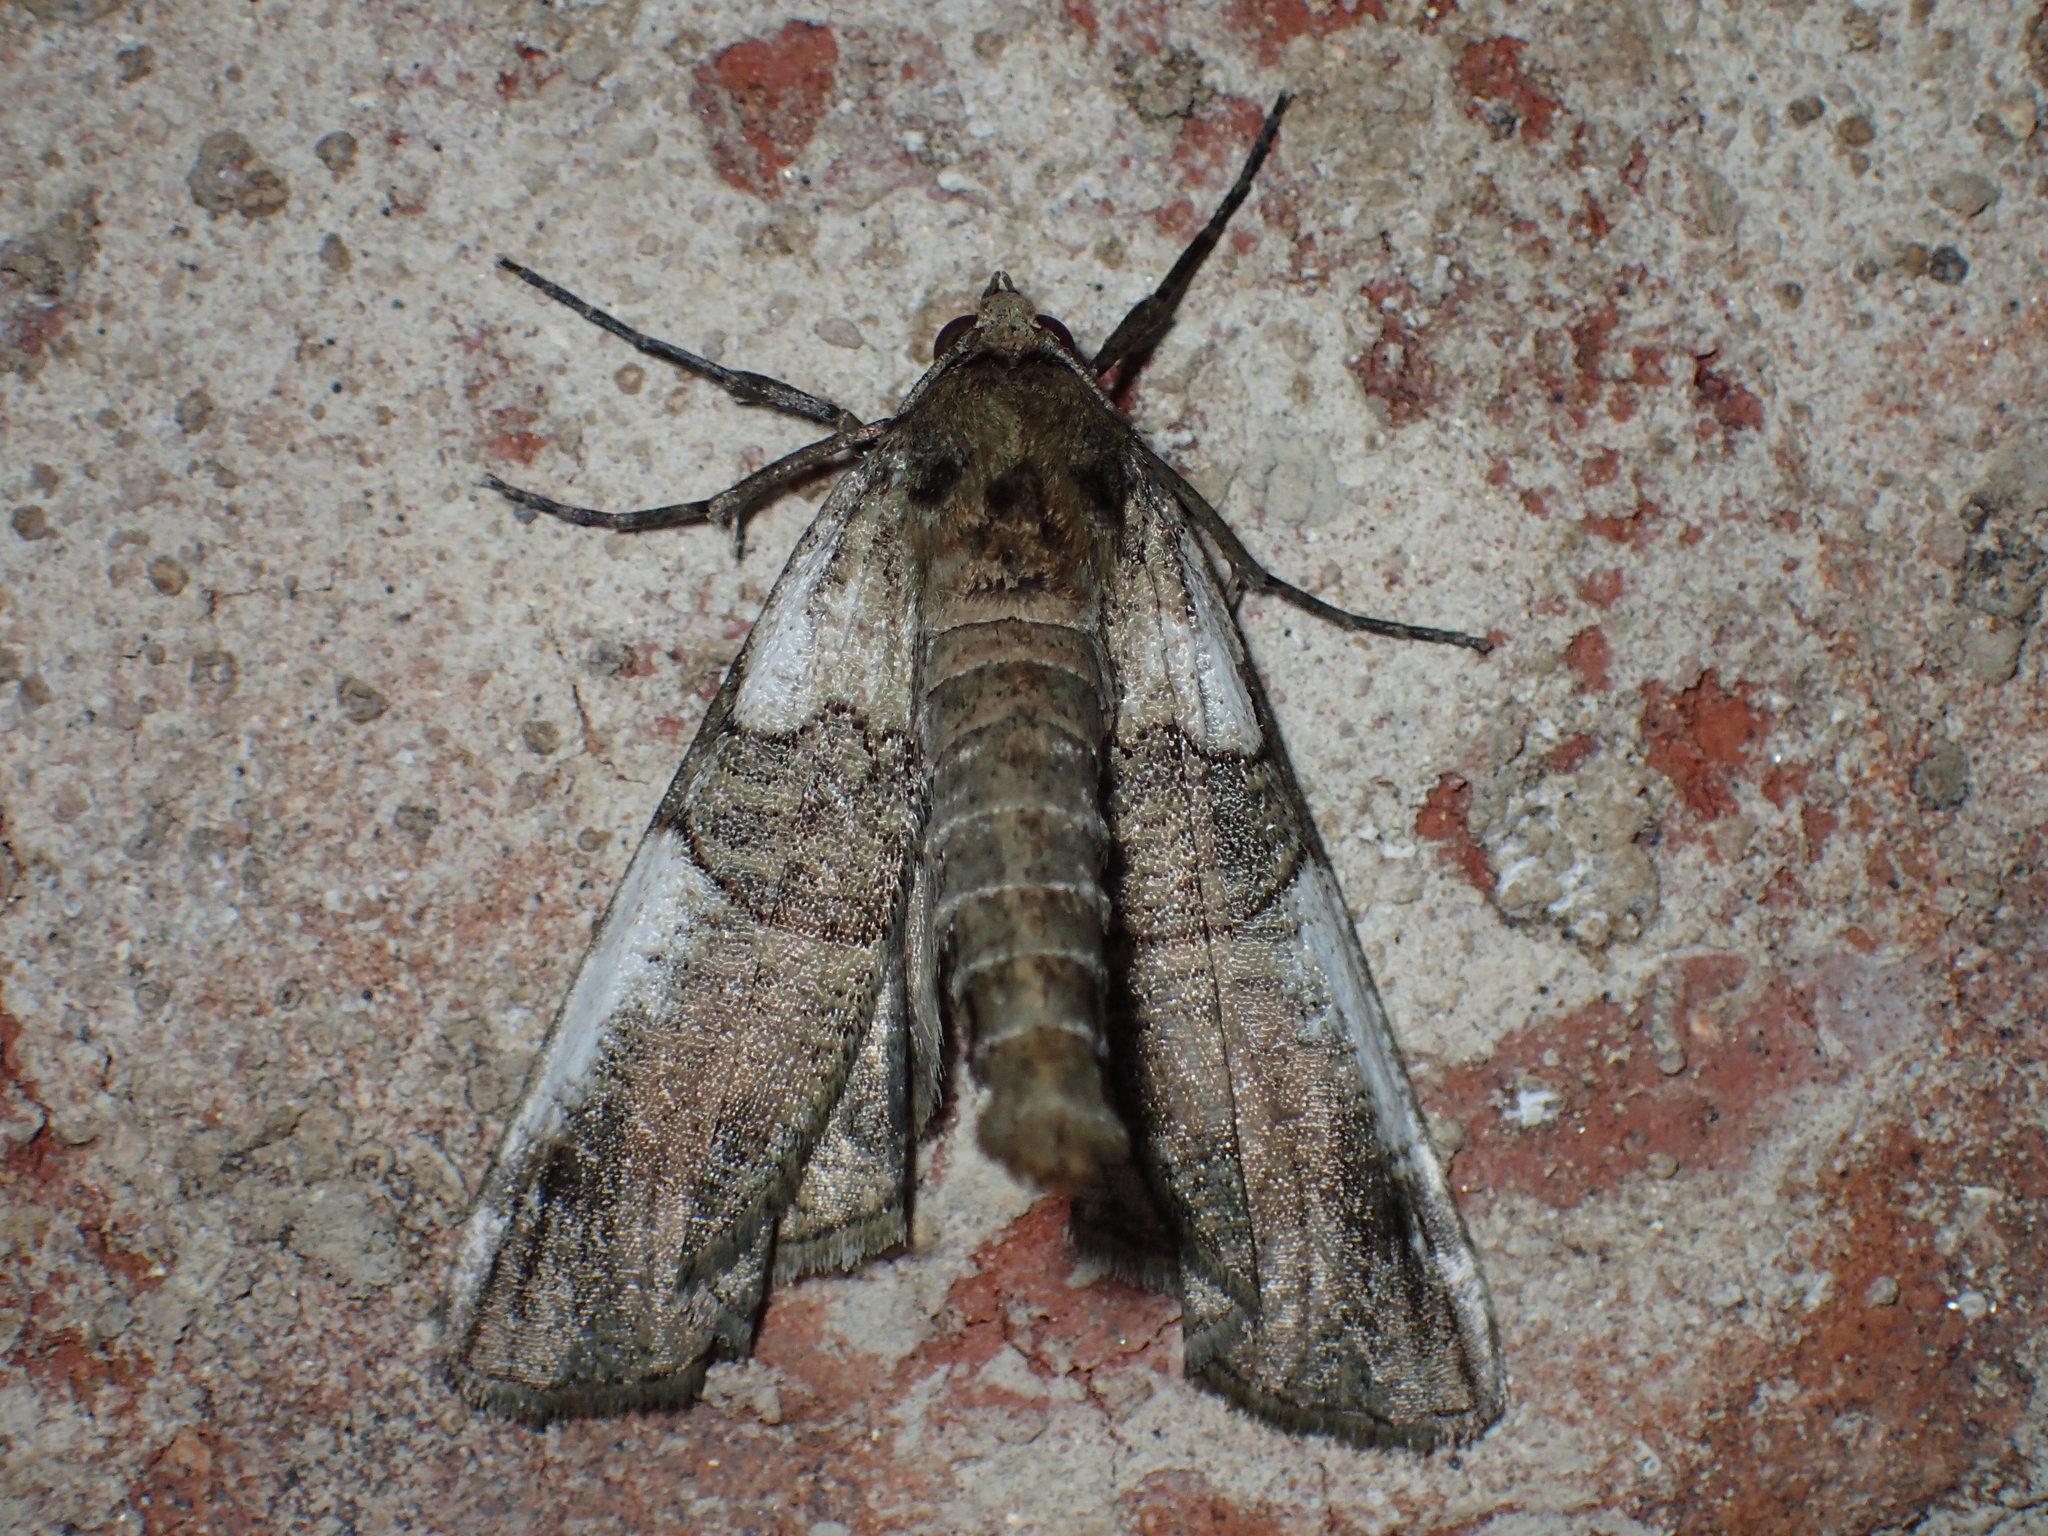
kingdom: Animalia
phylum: Arthropoda
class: Insecta
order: Lepidoptera
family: Geometridae
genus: Ceratonyx
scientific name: Ceratonyx satanaria
